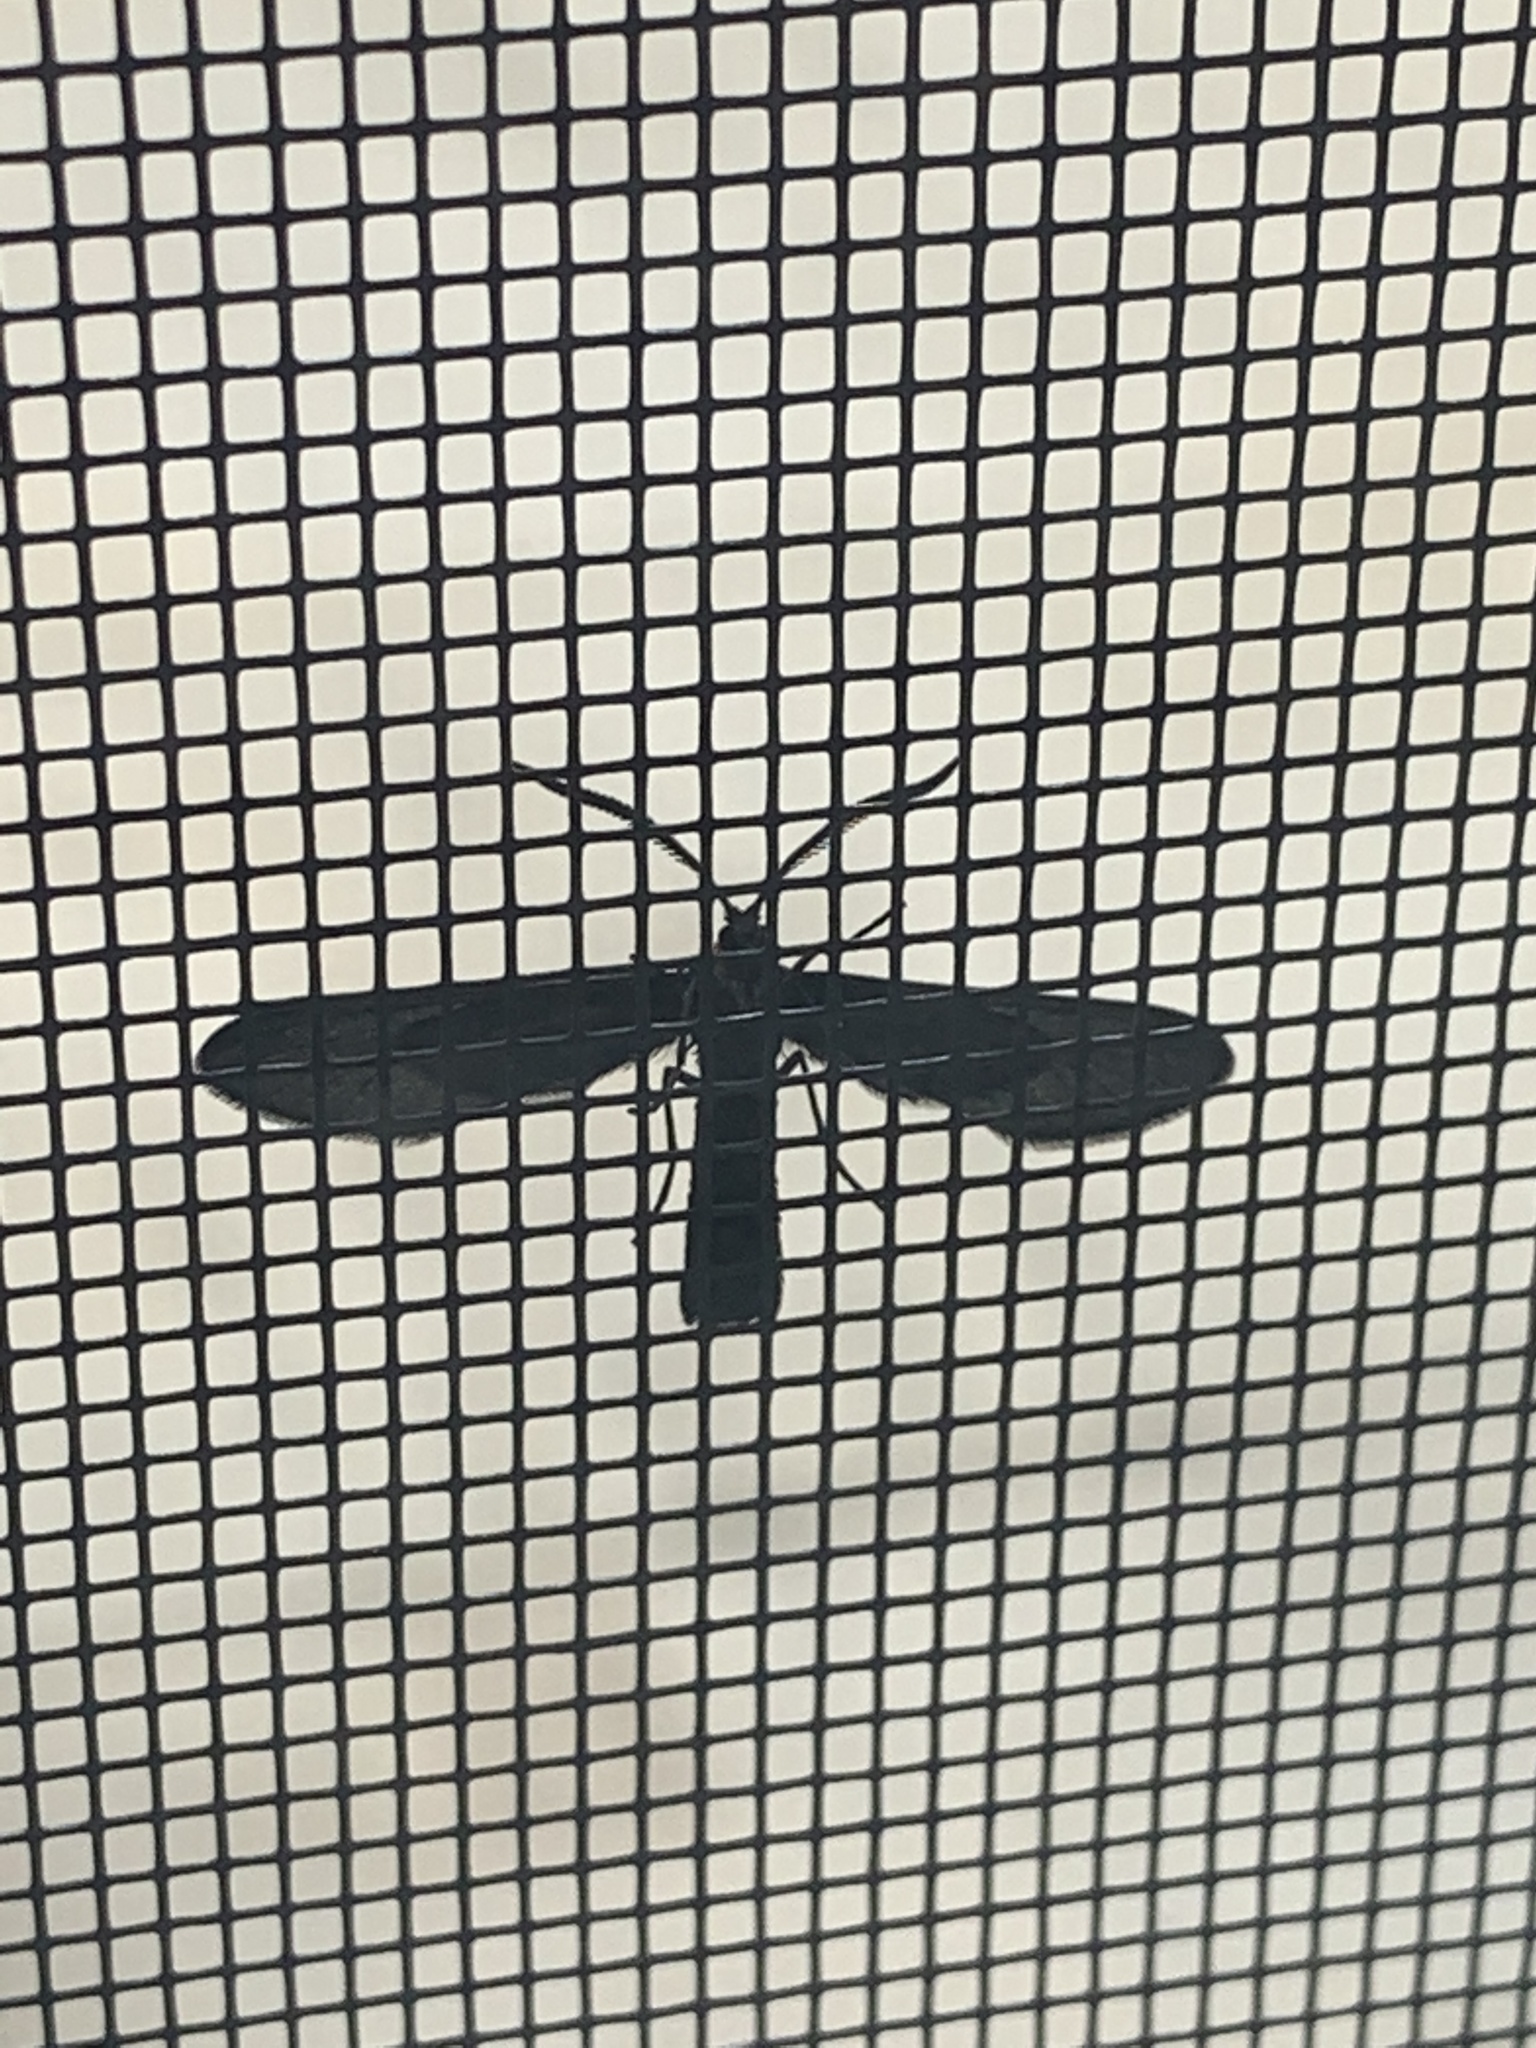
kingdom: Animalia
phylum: Arthropoda
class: Insecta
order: Lepidoptera
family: Zygaenidae
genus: Harrisina
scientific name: Harrisina americana
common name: Grapeleaf skeletonizer moth
